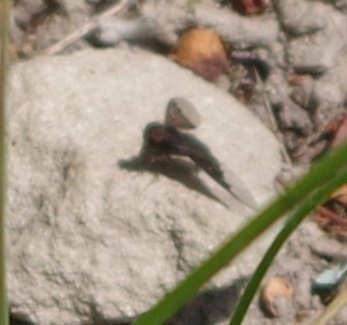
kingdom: Animalia
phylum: Arthropoda
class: Insecta
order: Diptera
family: Bombyliidae
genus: Hemipenthes
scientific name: Hemipenthes morio
